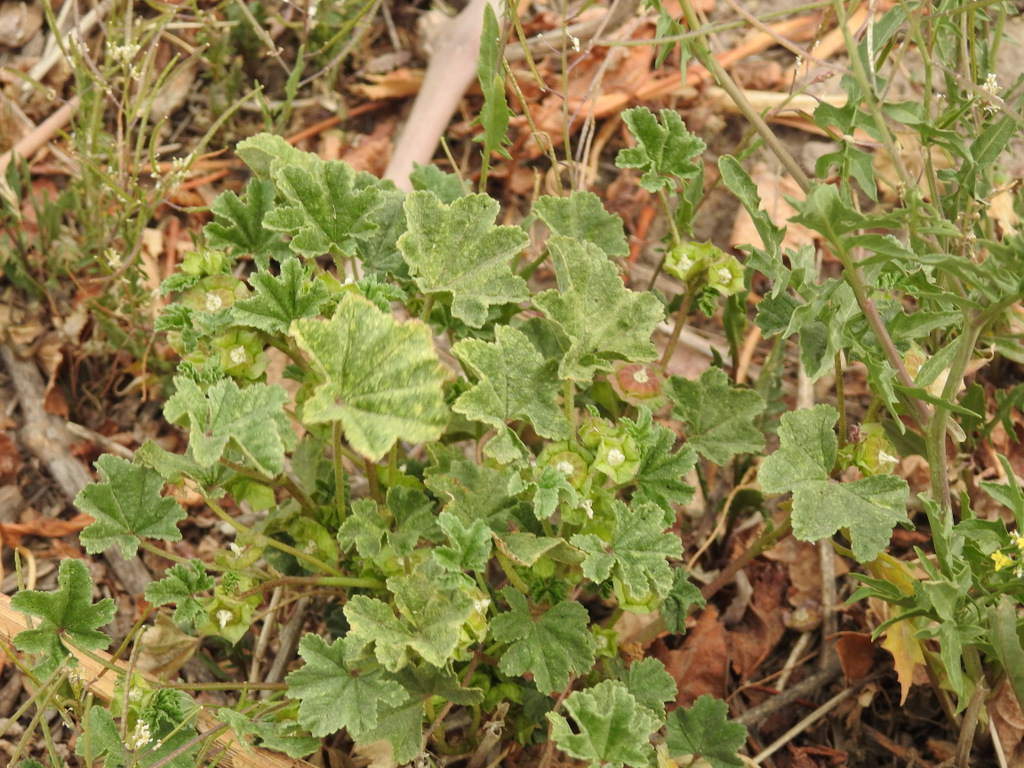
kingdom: Plantae
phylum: Tracheophyta
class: Magnoliopsida
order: Malvales
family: Malvaceae
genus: Malva
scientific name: Malva parviflora
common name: Least mallow
